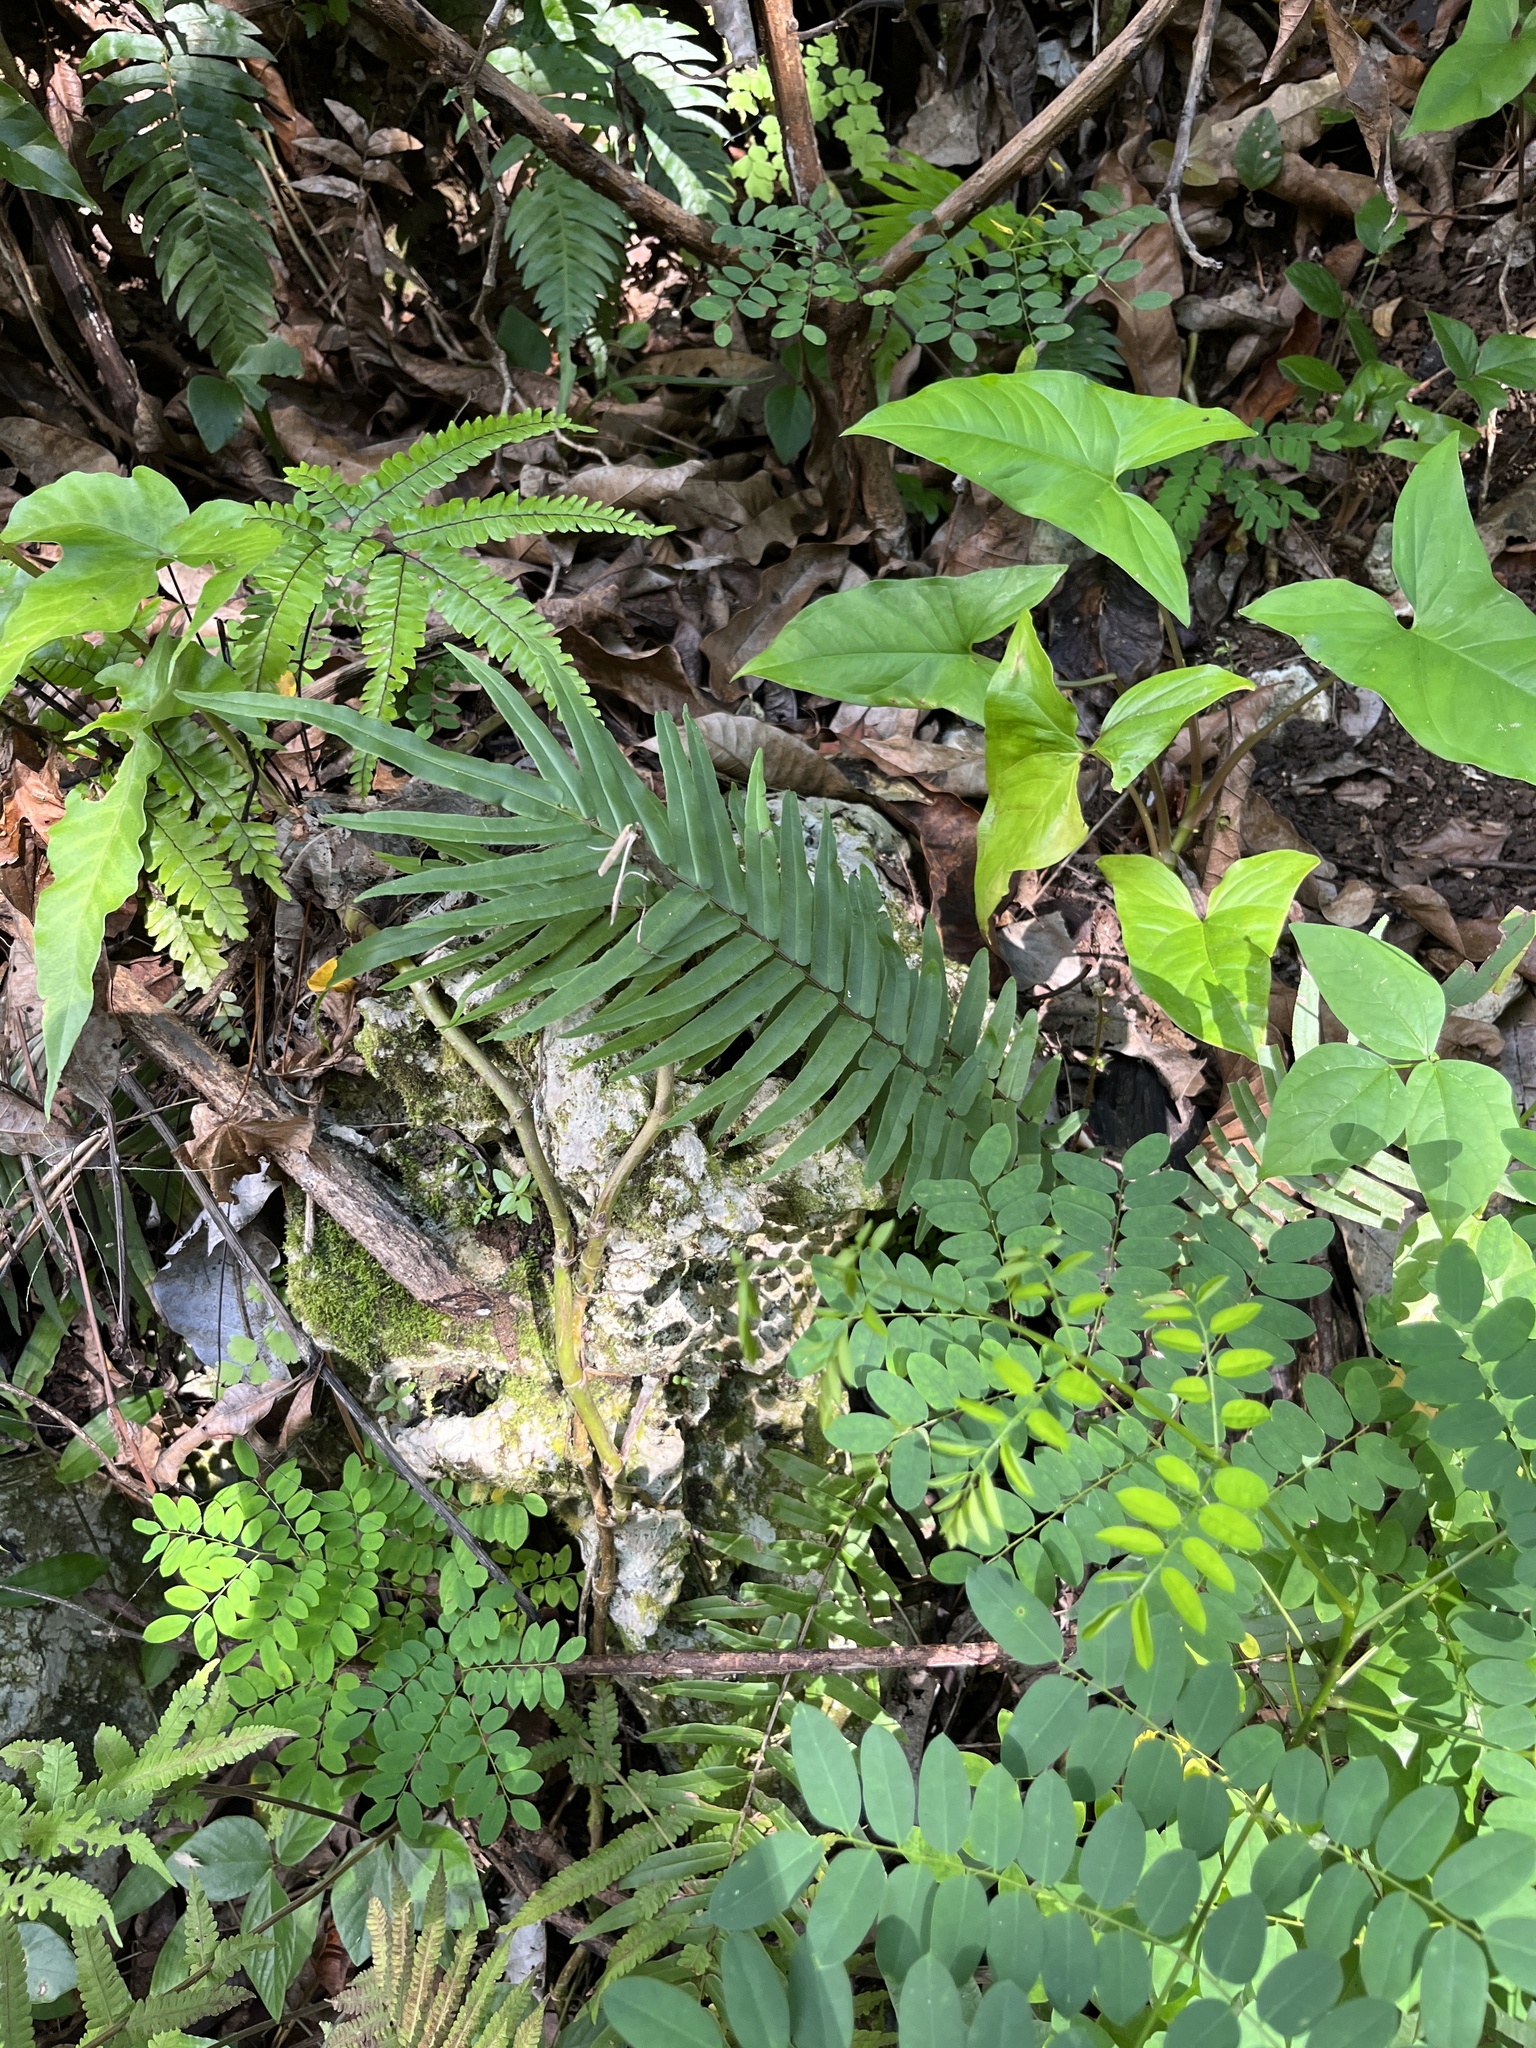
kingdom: Plantae
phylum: Tracheophyta
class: Polypodiopsida
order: Polypodiales
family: Pteridaceae
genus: Pteris
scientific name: Pteris vittata
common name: Ladder brake
